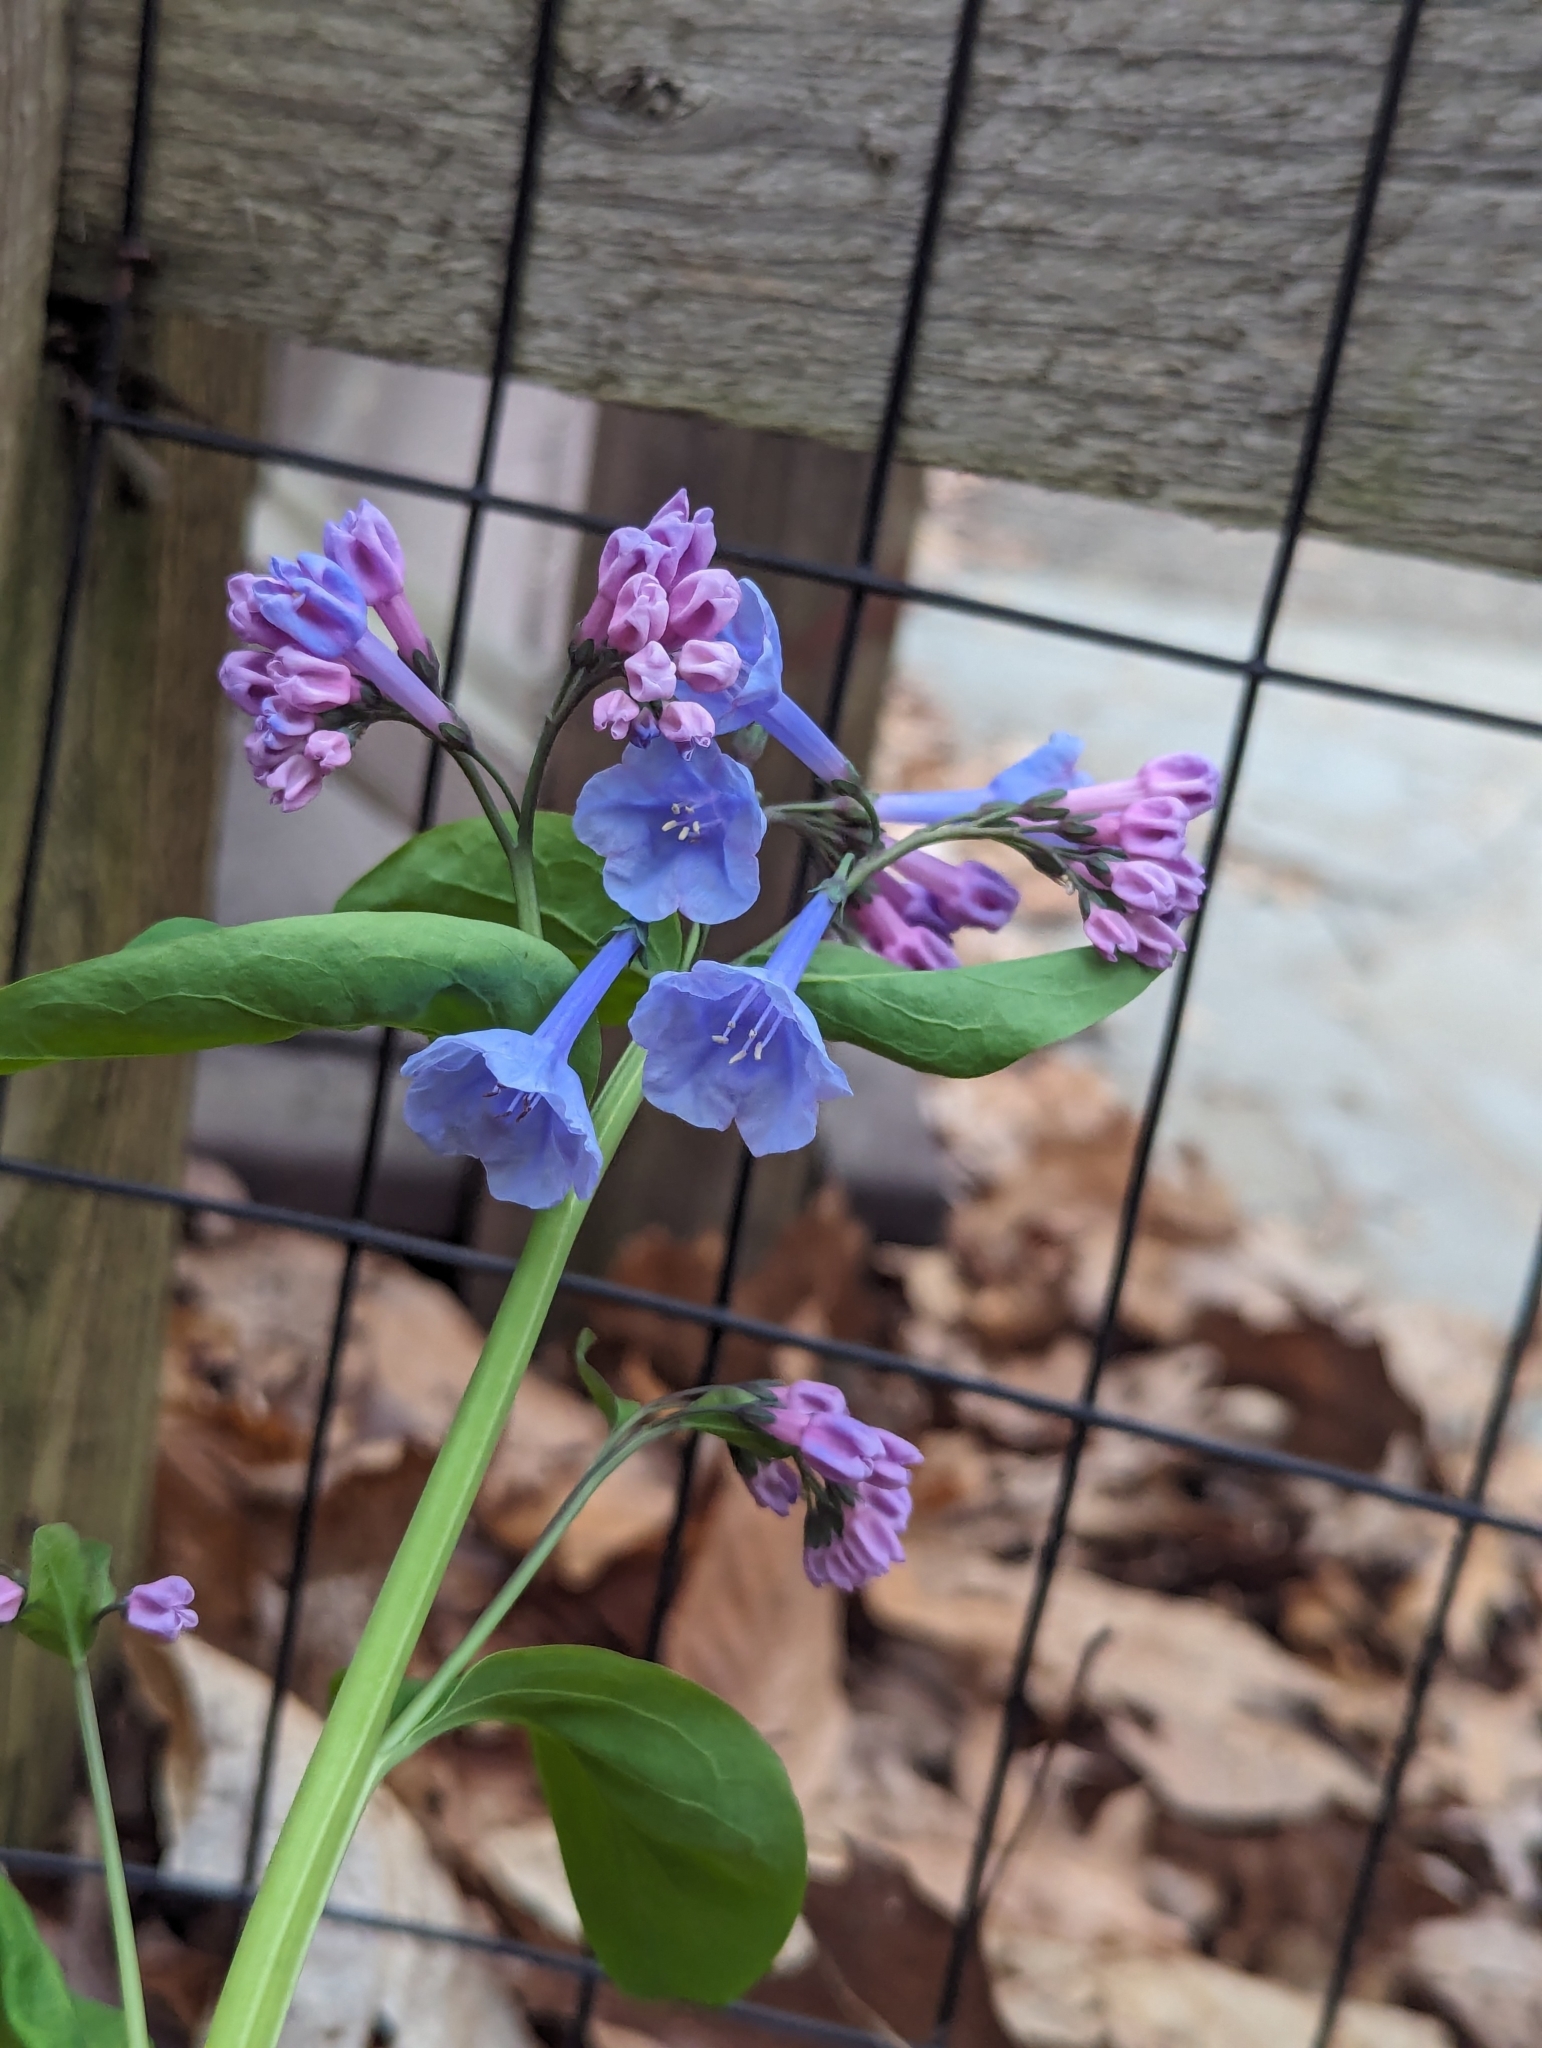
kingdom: Plantae
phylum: Tracheophyta
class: Magnoliopsida
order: Boraginales
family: Boraginaceae
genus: Mertensia
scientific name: Mertensia virginica
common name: Virginia bluebells
